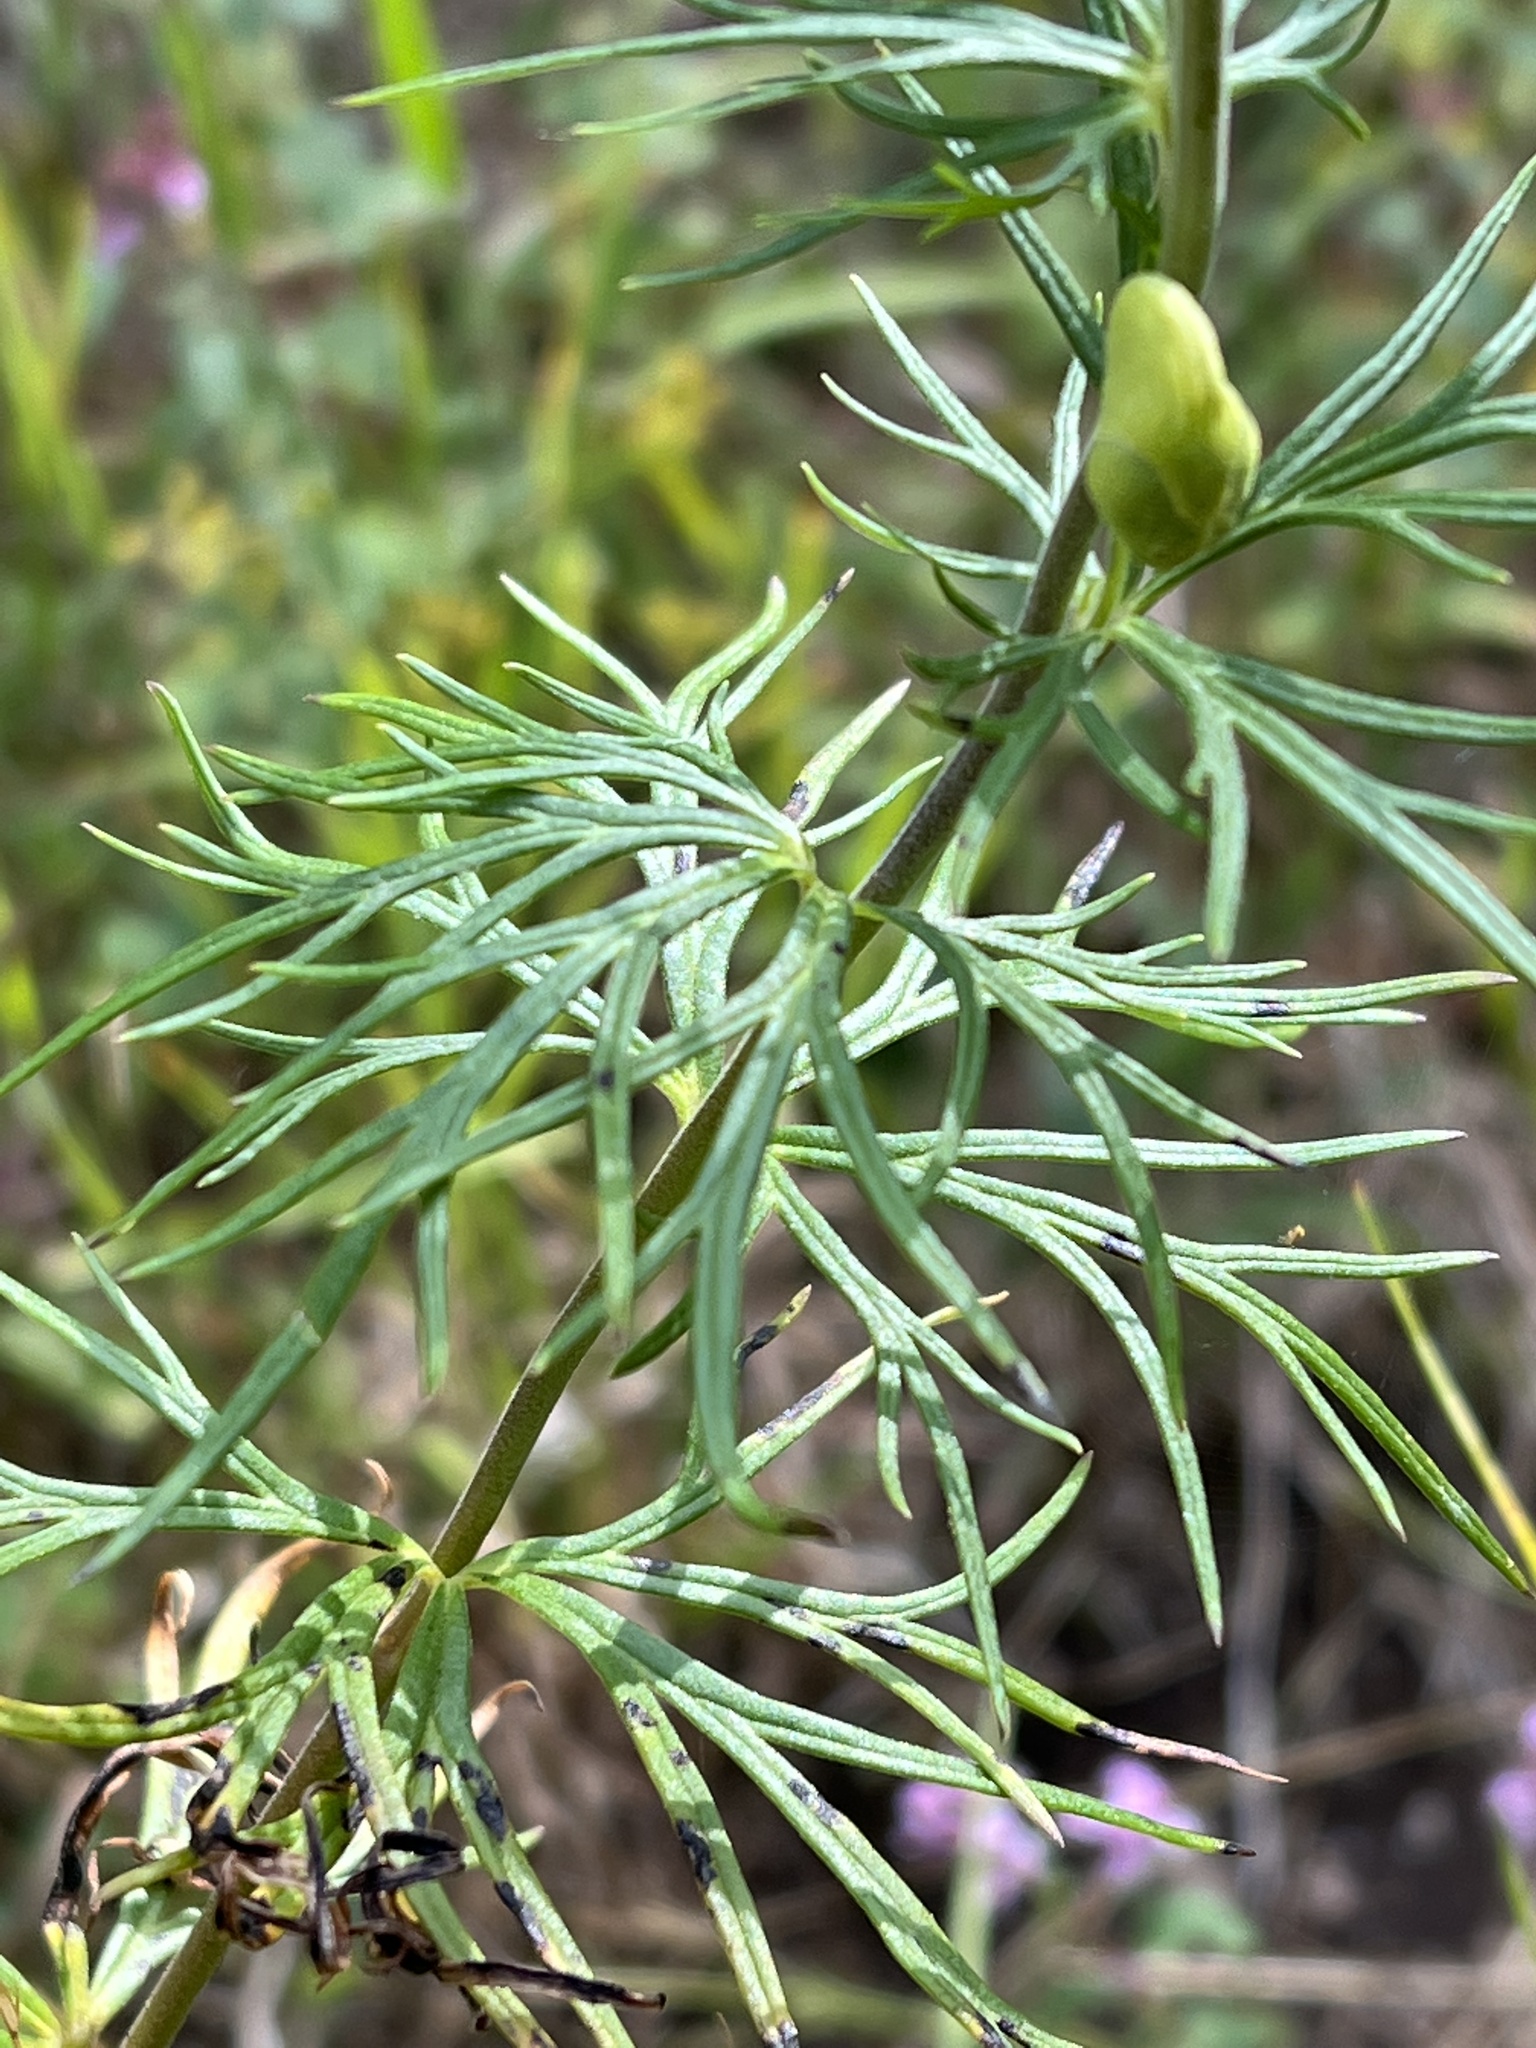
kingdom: Plantae
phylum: Tracheophyta
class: Magnoliopsida
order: Ranunculales
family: Ranunculaceae
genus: Aconitum
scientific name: Aconitum anthora
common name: Yellow monkshood
